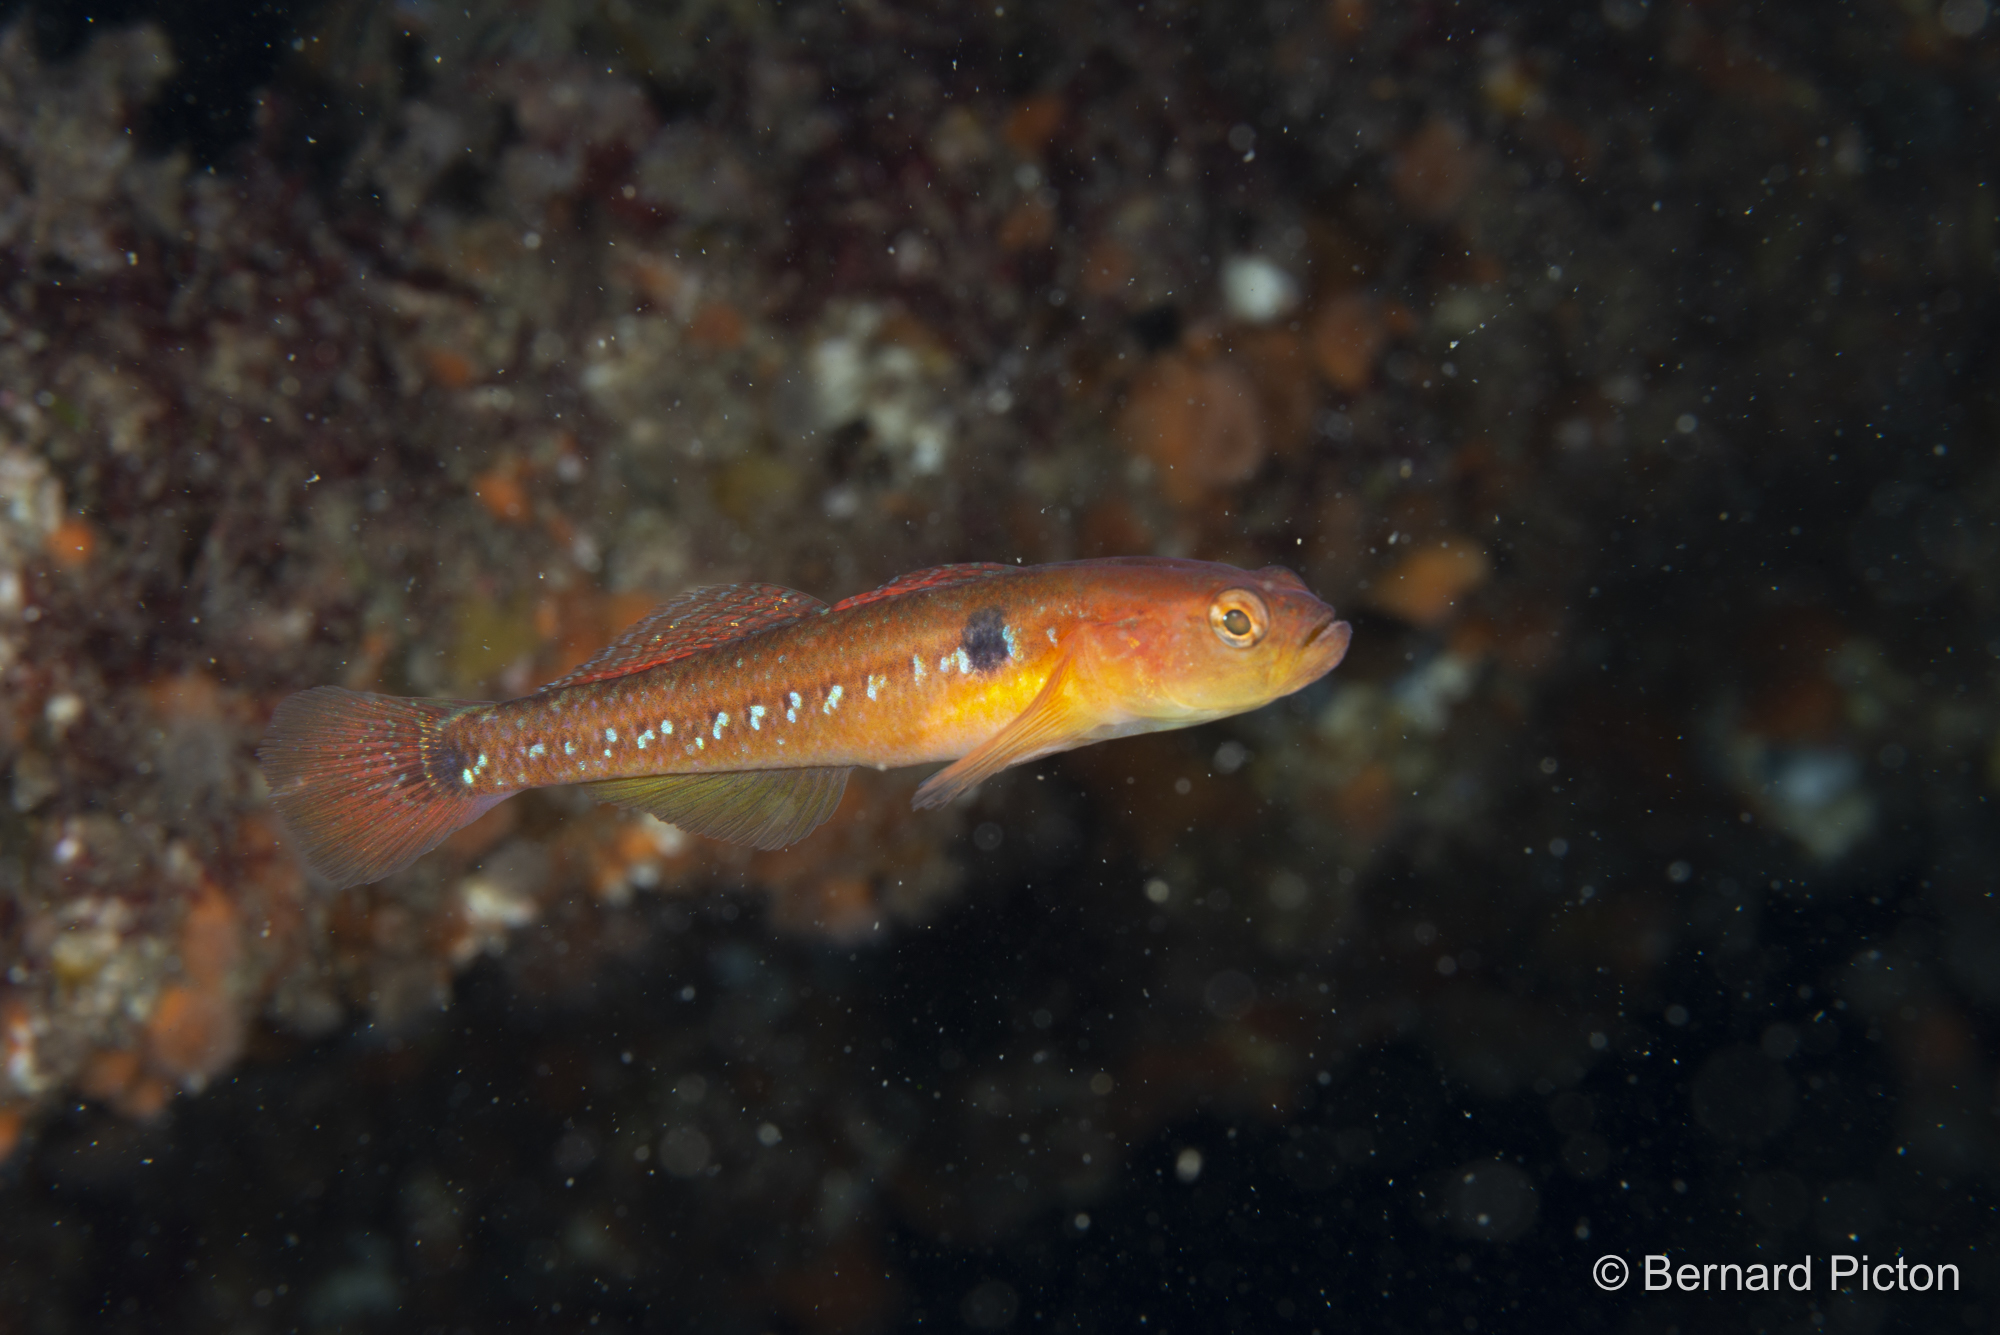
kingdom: Animalia
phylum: Chordata
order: Perciformes
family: Gobiidae
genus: Gobiusculus
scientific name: Gobiusculus flavescens
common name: Two-spotted goby
